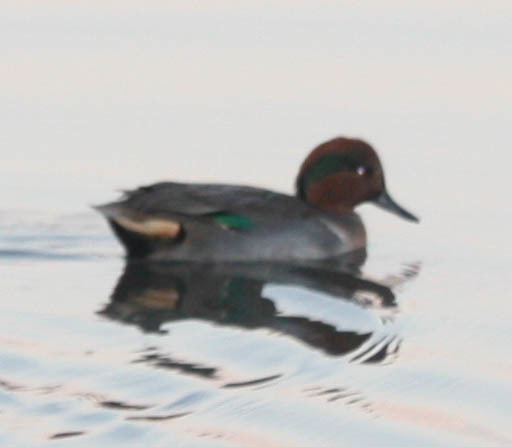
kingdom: Animalia
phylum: Chordata
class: Aves
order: Anseriformes
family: Anatidae
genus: Anas
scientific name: Anas crecca
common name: Eurasian teal
